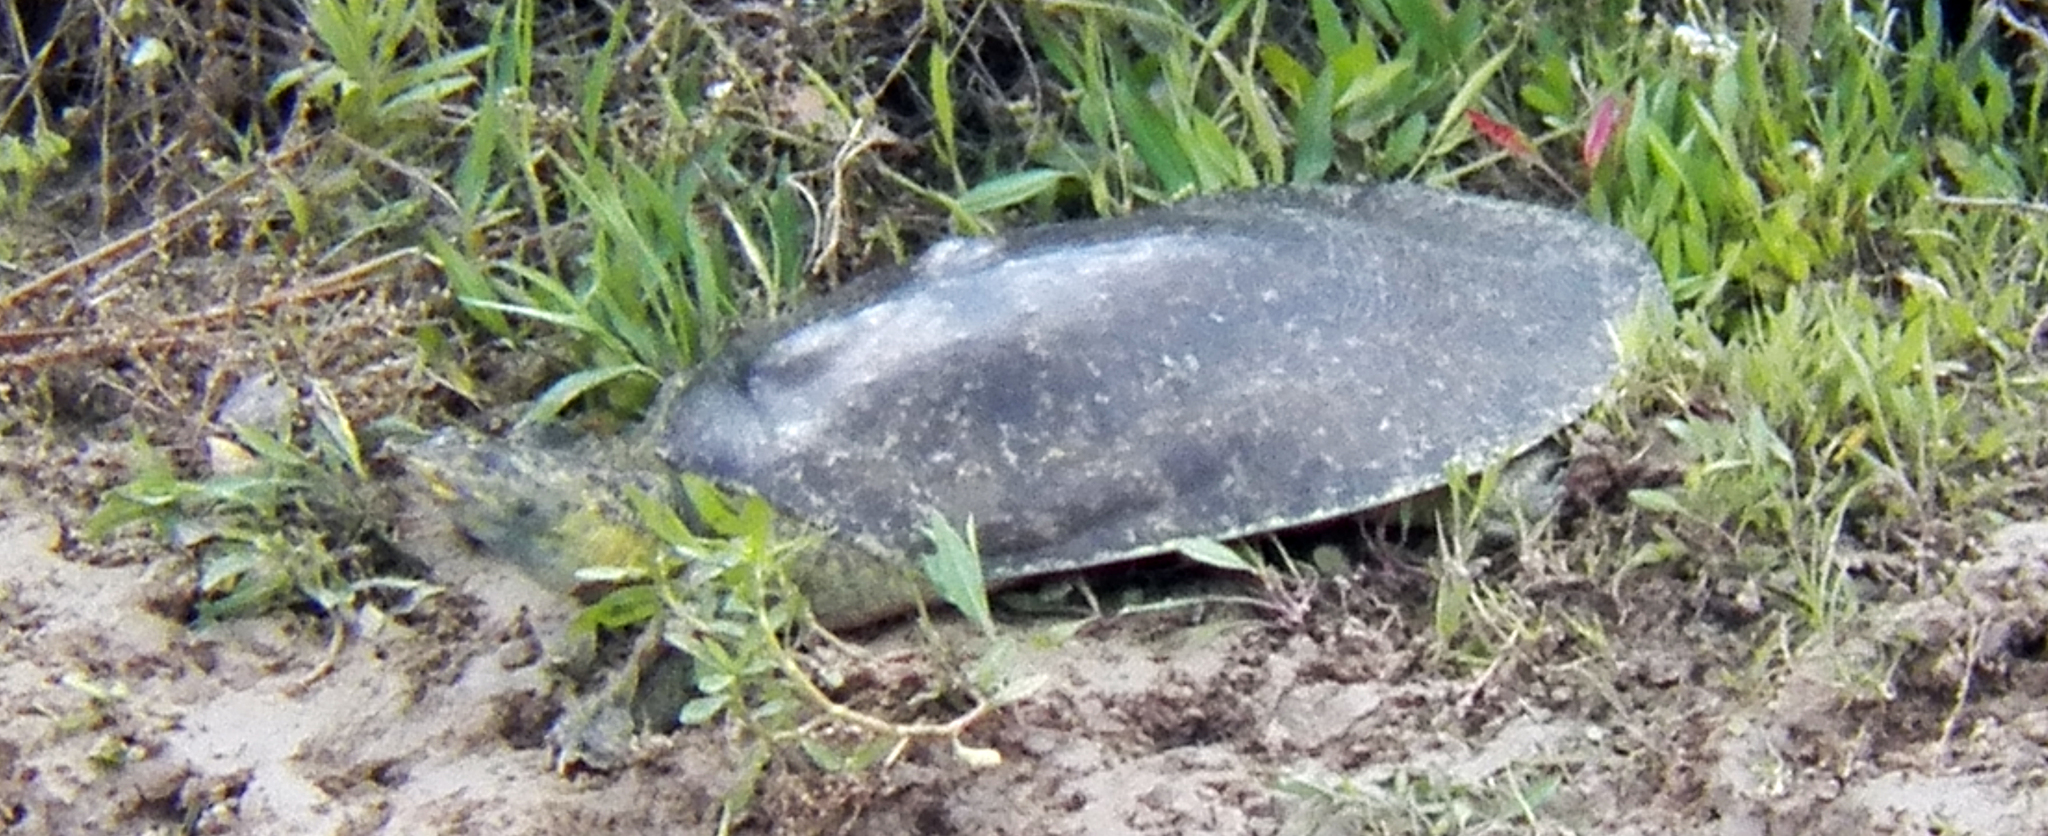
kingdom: Animalia
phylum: Chordata
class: Testudines
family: Trionychidae
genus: Apalone
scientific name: Apalone spinifera
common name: Spiny softshell turtle
